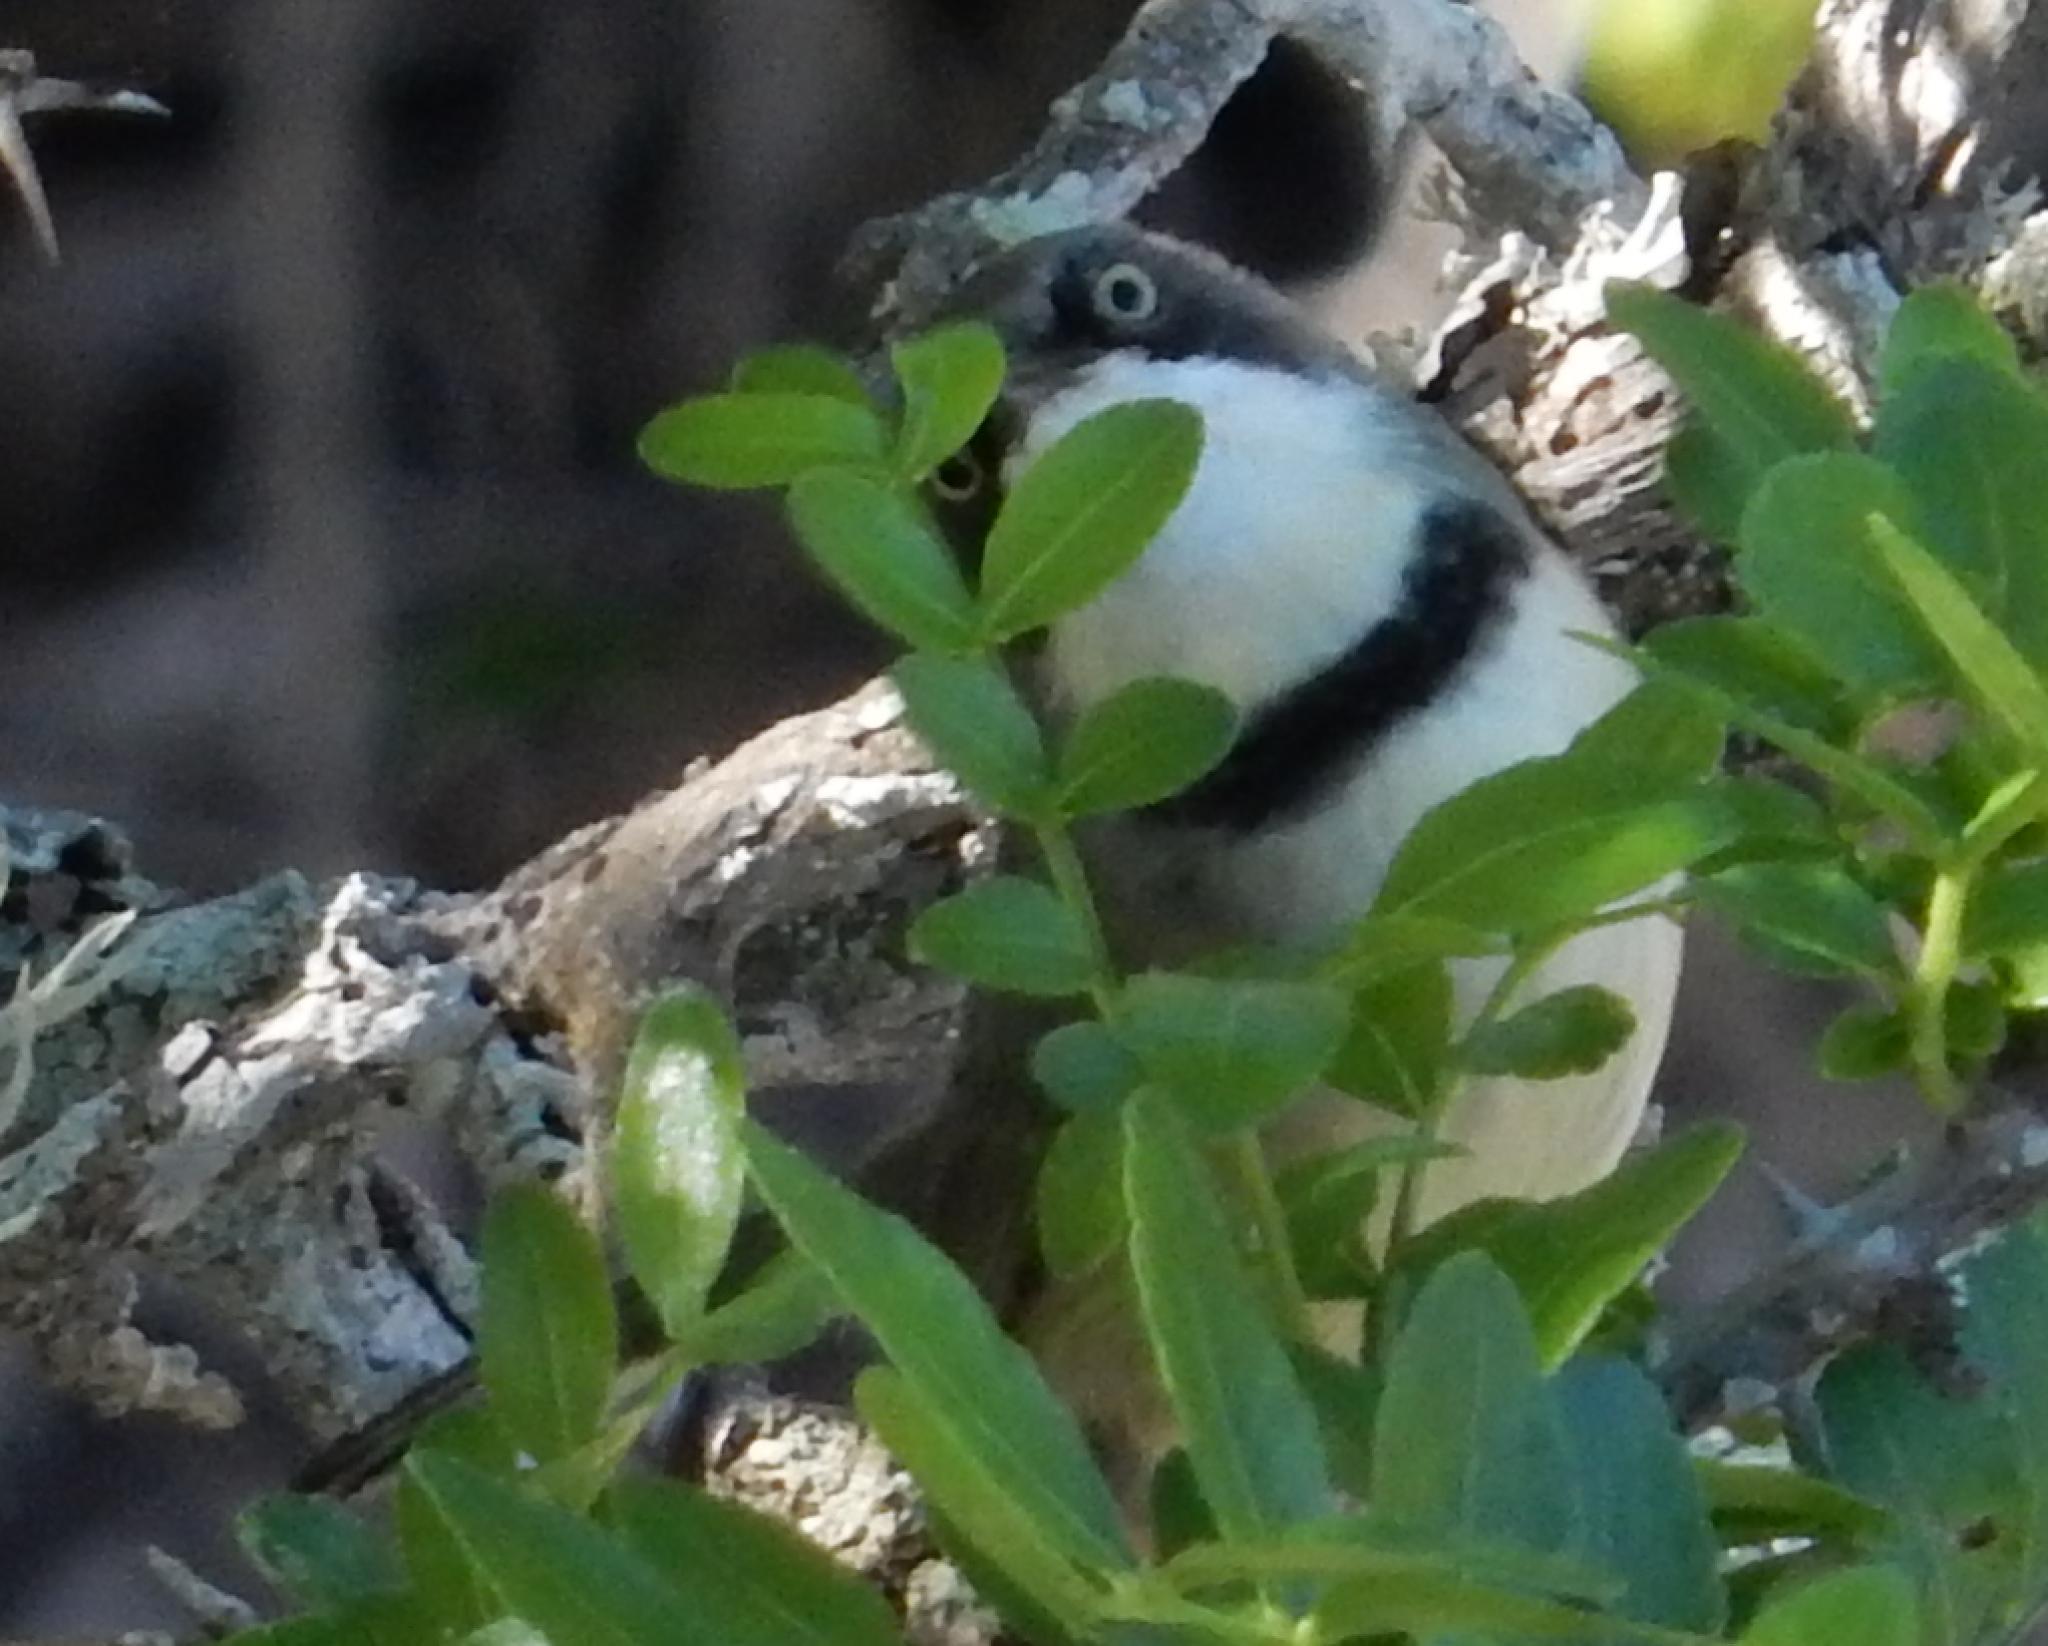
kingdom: Animalia
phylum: Chordata
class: Aves
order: Passeriformes
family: Cisticolidae
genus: Apalis
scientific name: Apalis thoracica
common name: Bar-throated apalis
